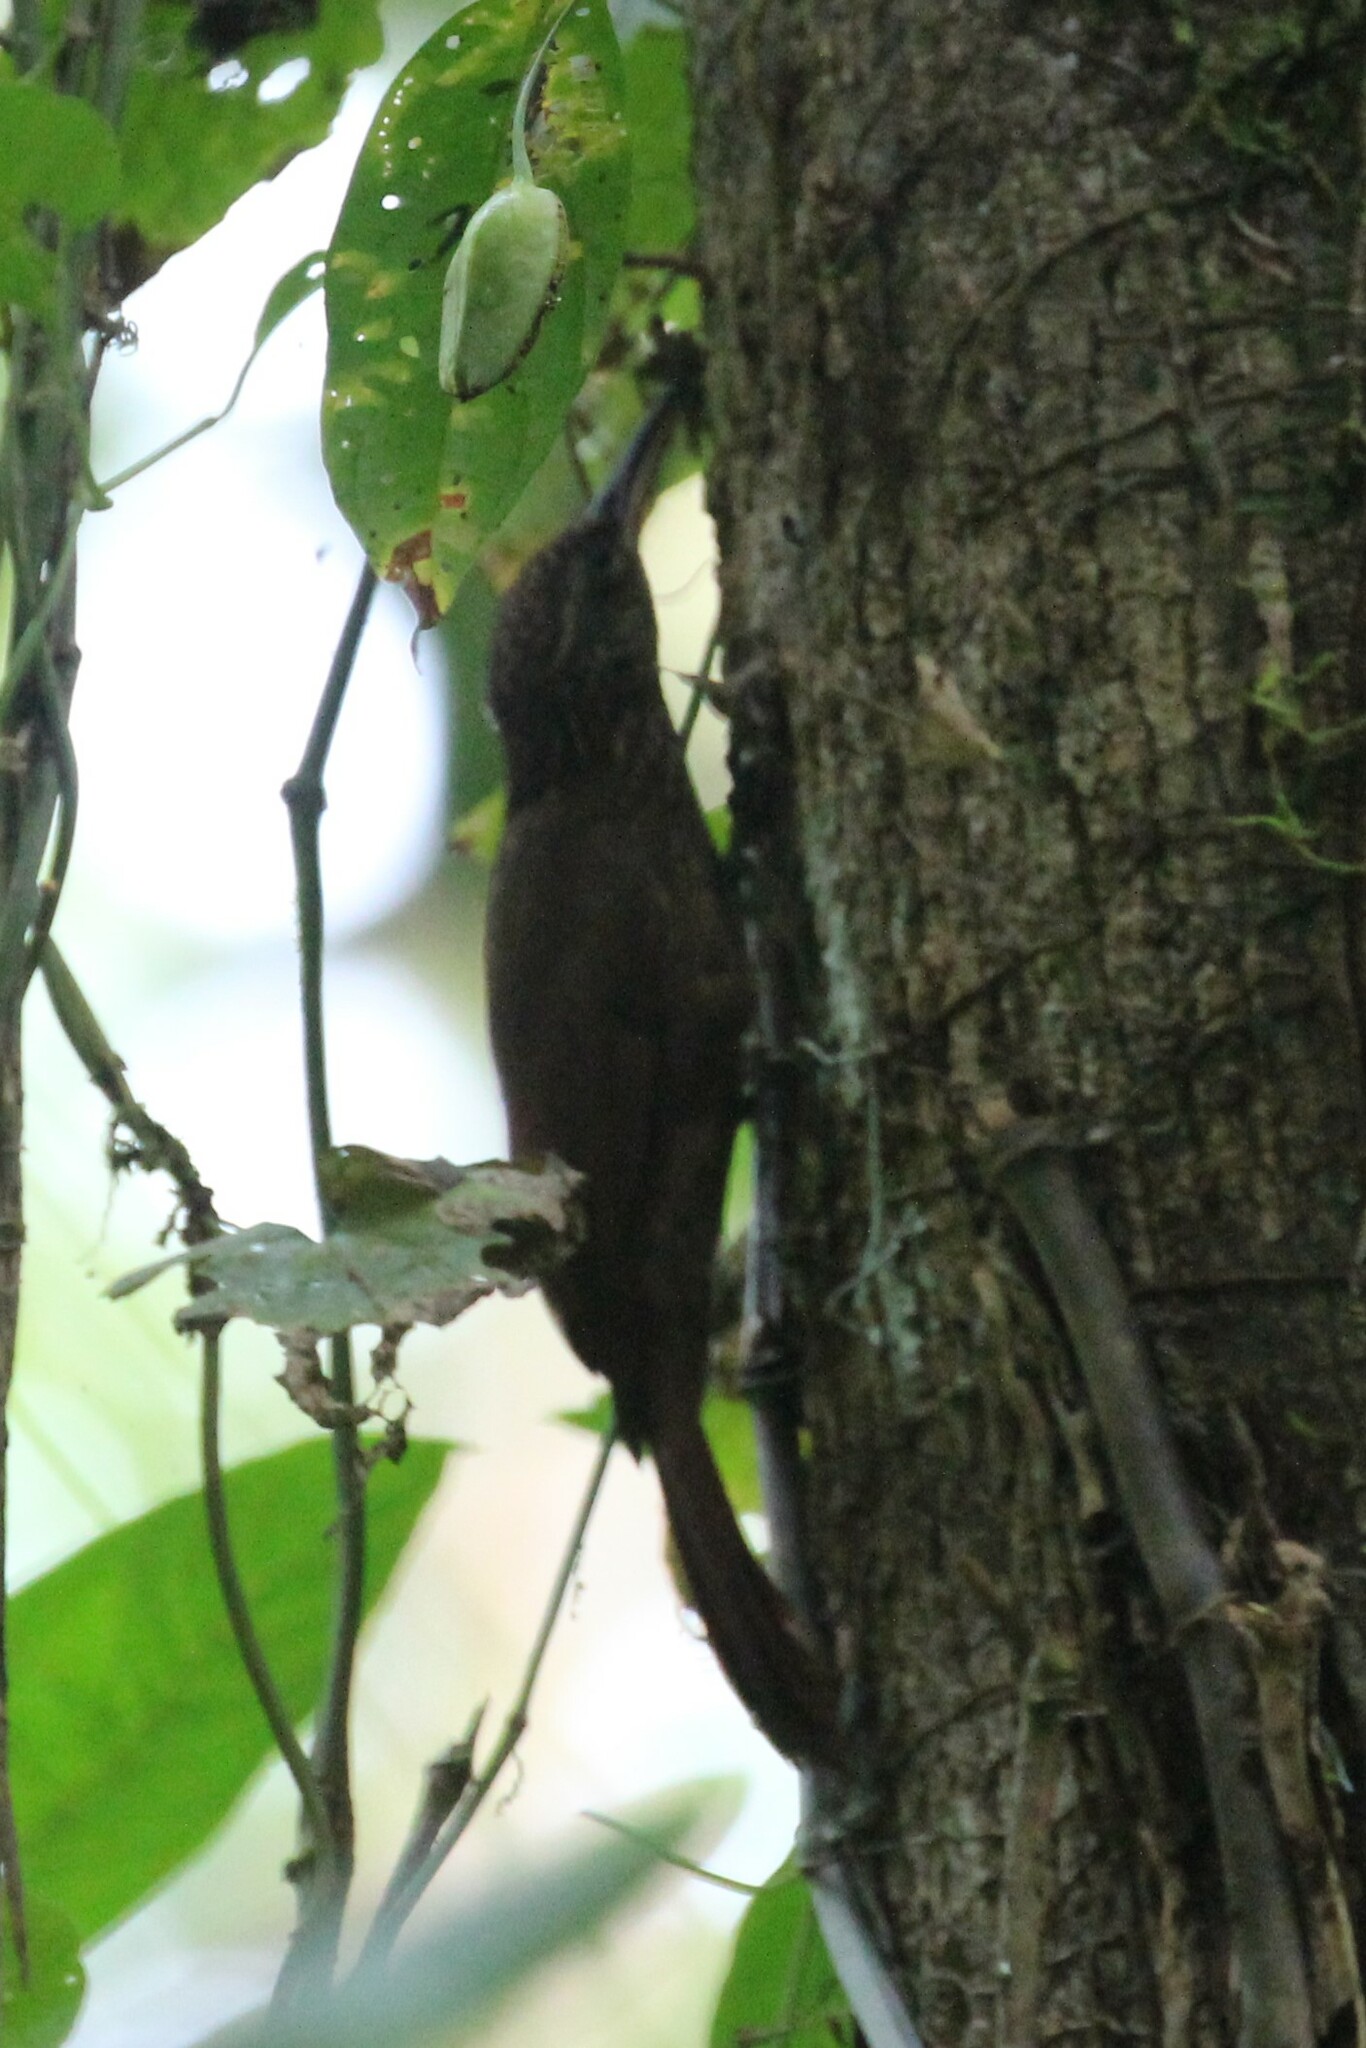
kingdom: Animalia
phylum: Chordata
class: Aves
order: Passeriformes
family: Furnariidae
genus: Xiphorhynchus
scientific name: Xiphorhynchus susurrans
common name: Cocoa woodcreeper
